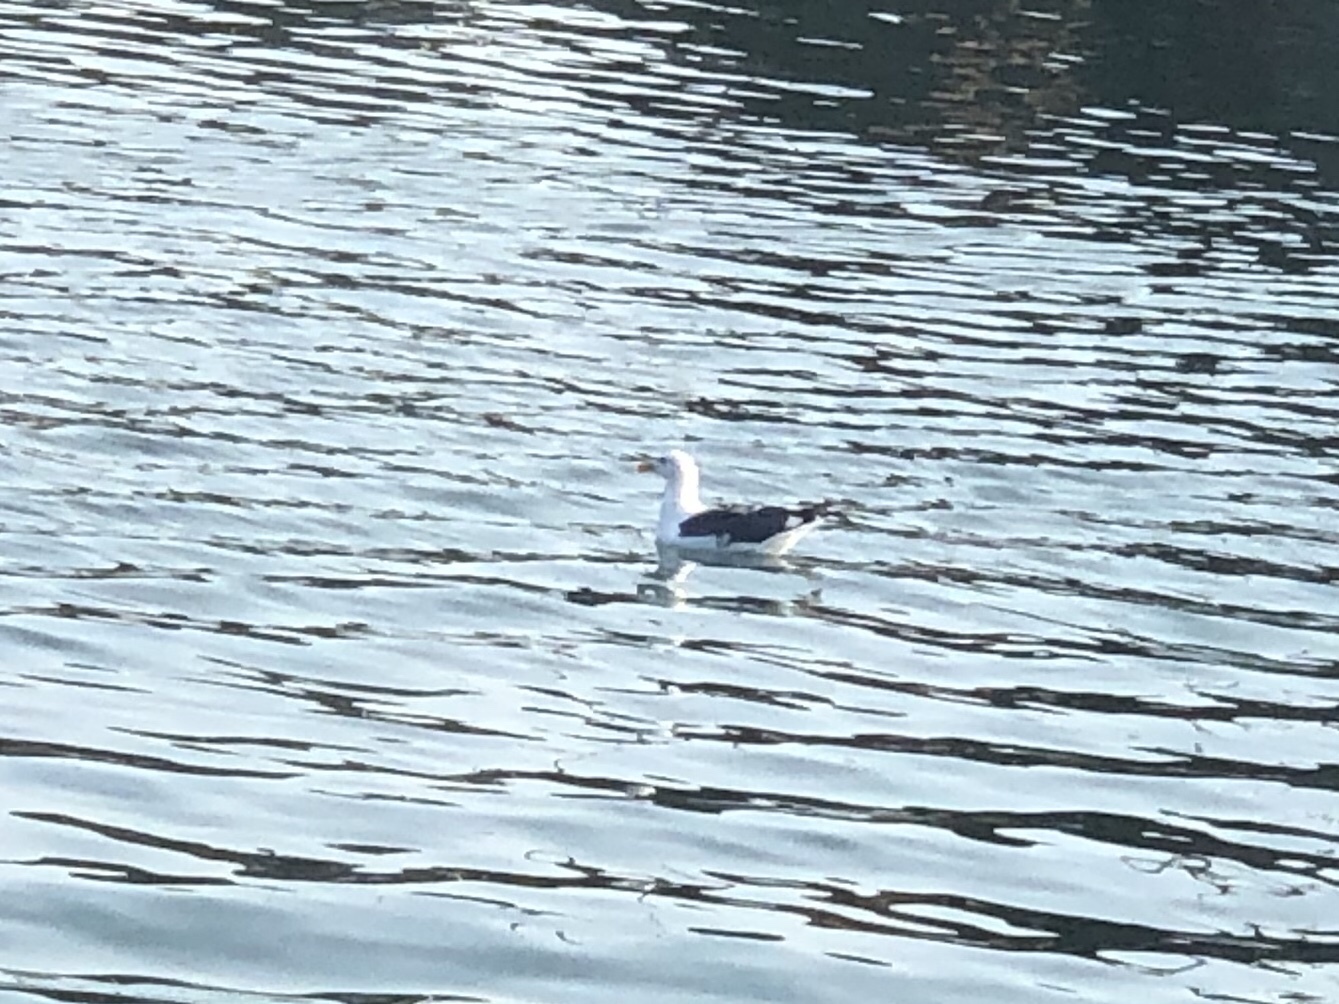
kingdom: Animalia
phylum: Chordata
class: Aves
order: Charadriiformes
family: Laridae
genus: Larus
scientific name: Larus occidentalis
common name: Western gull
